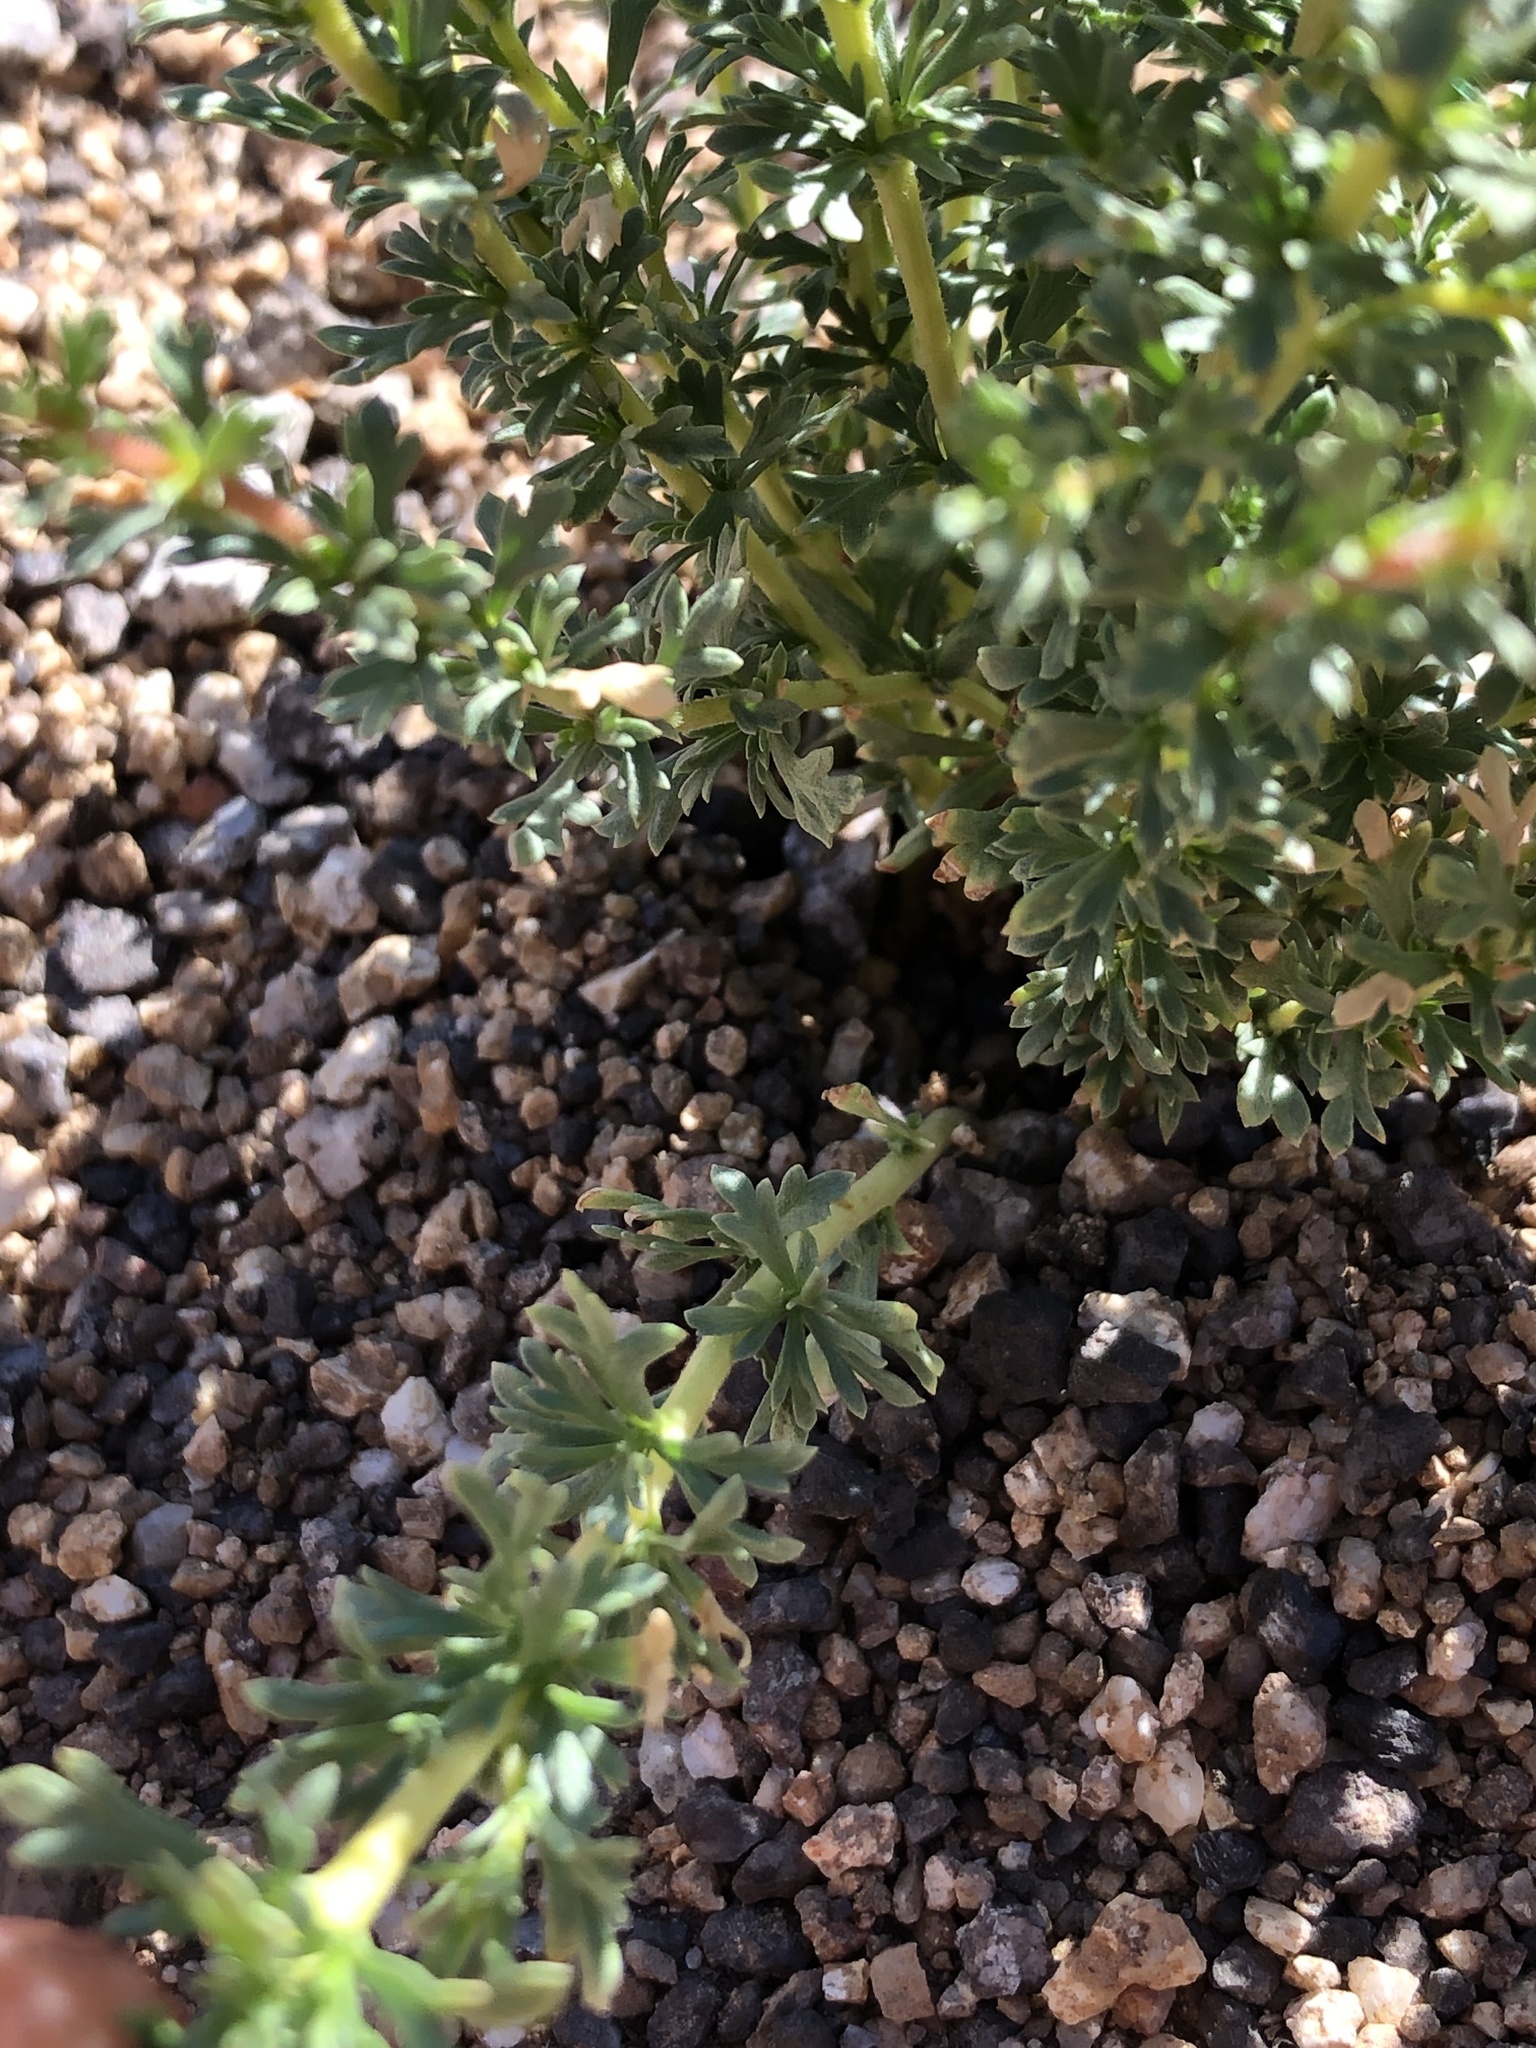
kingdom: Plantae
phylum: Tracheophyta
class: Magnoliopsida
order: Rosales
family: Rosaceae
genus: Adenostoma
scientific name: Adenostoma fasciculatum
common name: Chamise
